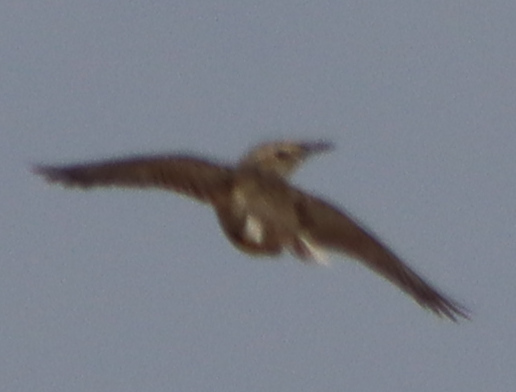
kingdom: Animalia
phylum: Chordata
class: Aves
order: Passeriformes
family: Icteridae
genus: Sturnella
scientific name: Sturnella neglecta
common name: Western meadowlark
